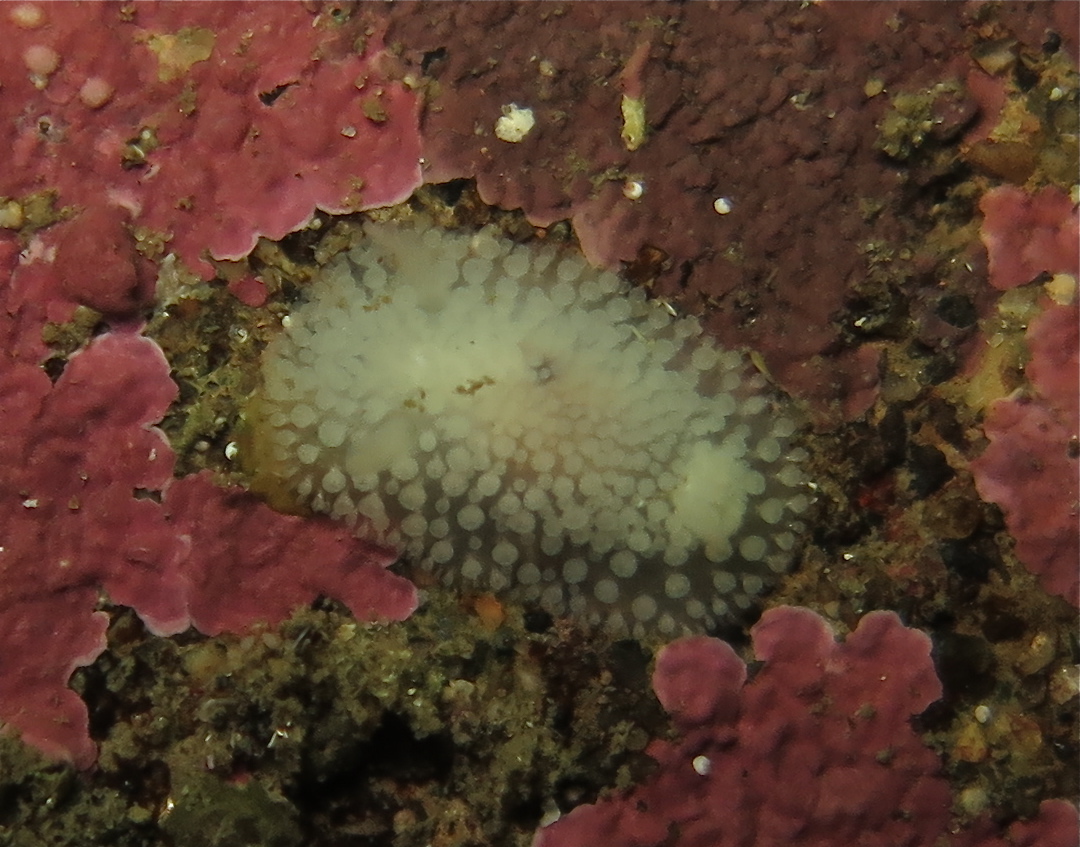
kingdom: Animalia
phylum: Mollusca
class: Gastropoda
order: Nudibranchia
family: Onchidorididae
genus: Onchidoris
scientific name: Onchidoris muricata
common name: Rough doris
